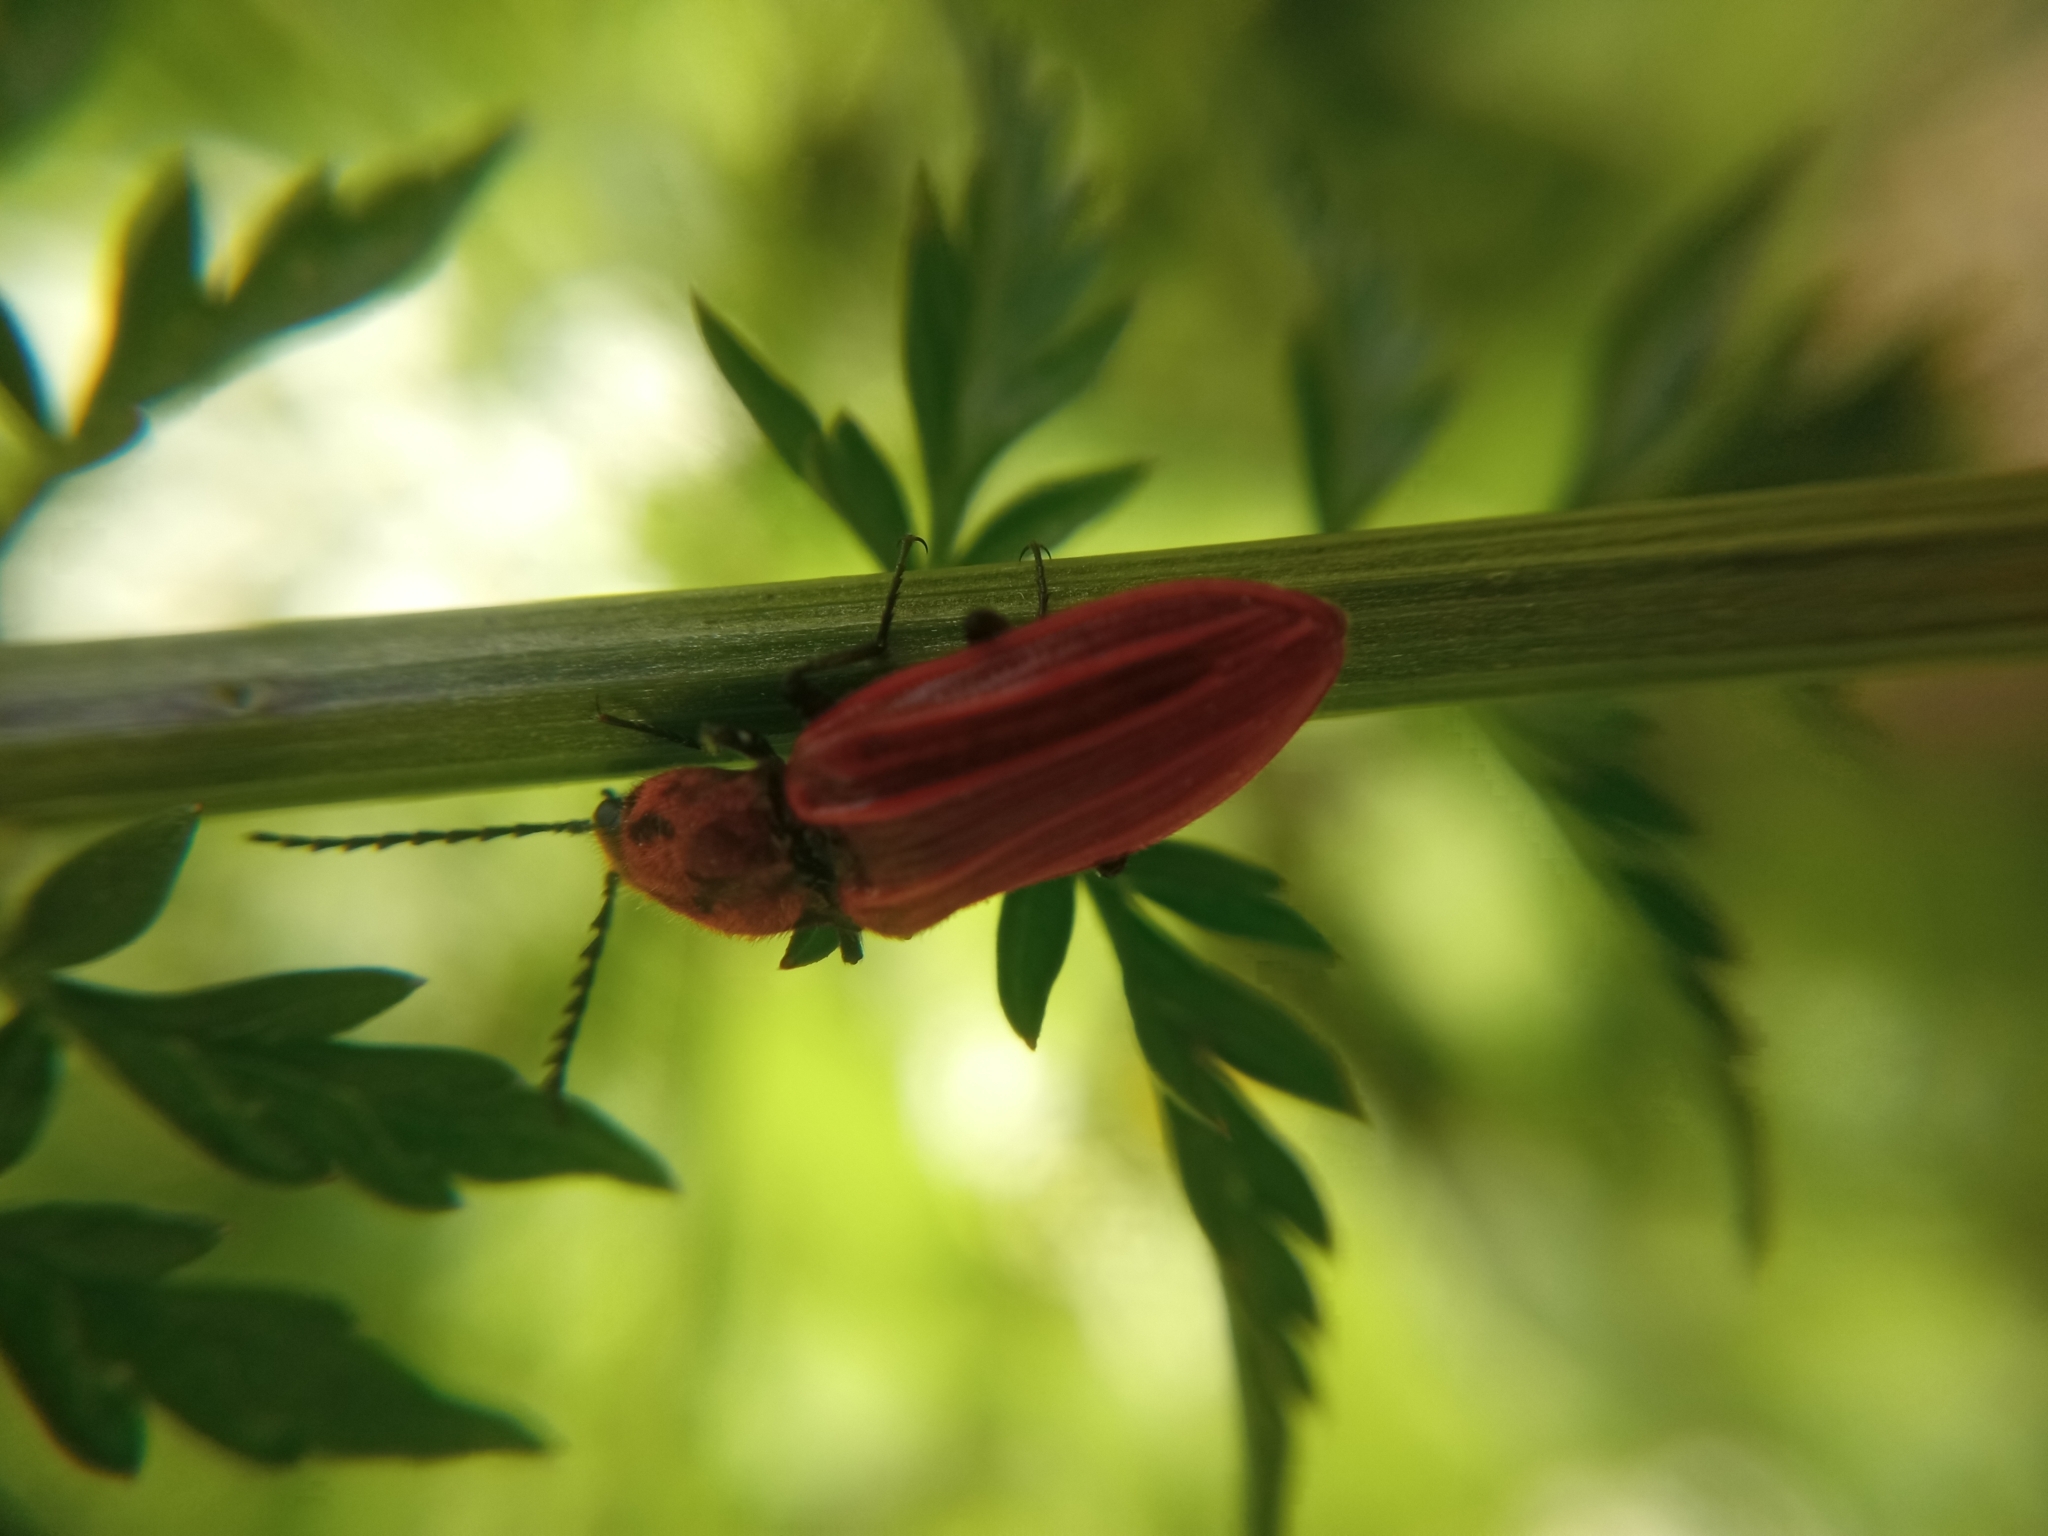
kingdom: Animalia
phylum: Arthropoda
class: Insecta
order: Coleoptera
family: Elateridae
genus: Anostirus
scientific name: Anostirus purpureus
